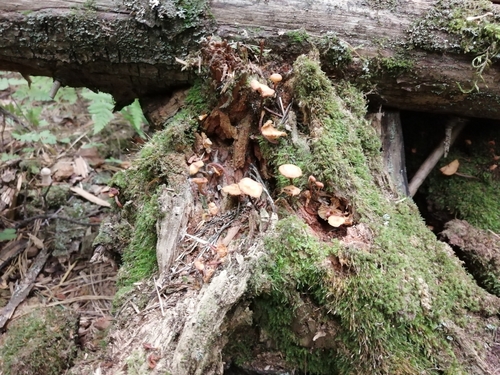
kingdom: Fungi
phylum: Basidiomycota
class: Agaricomycetes
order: Agaricales
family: Strophariaceae
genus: Kuehneromyces
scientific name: Kuehneromyces mutabilis
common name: Sheathed woodtuft
